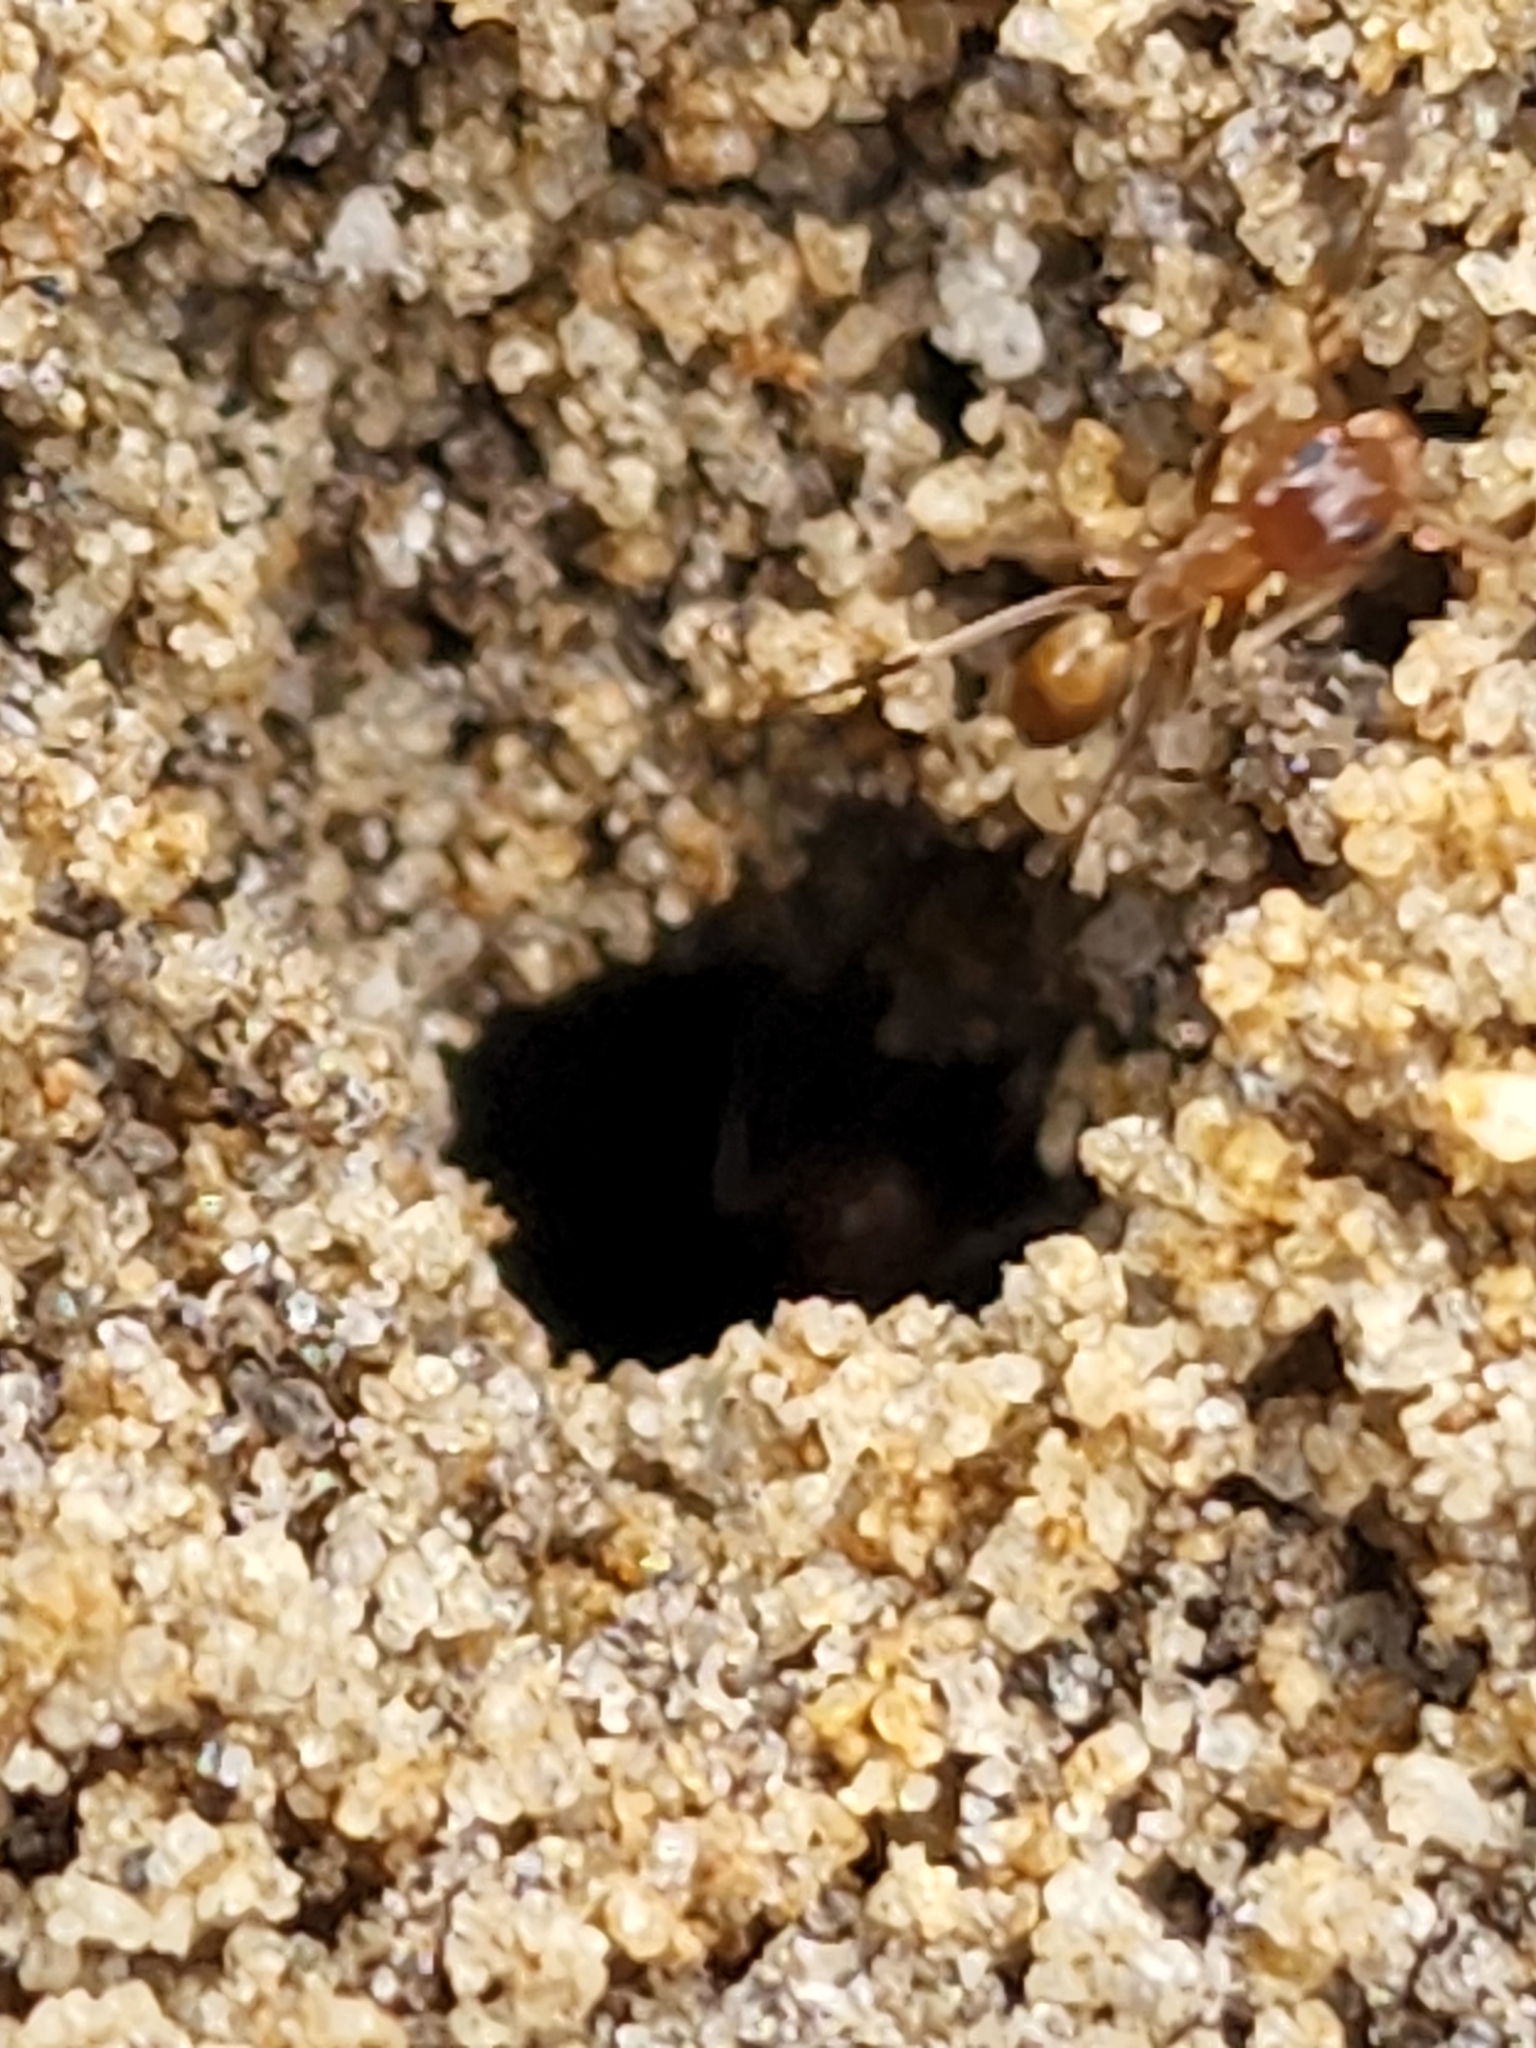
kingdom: Animalia
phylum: Arthropoda
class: Insecta
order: Hymenoptera
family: Formicidae
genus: Dorymyrmex
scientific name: Dorymyrmex bureni
